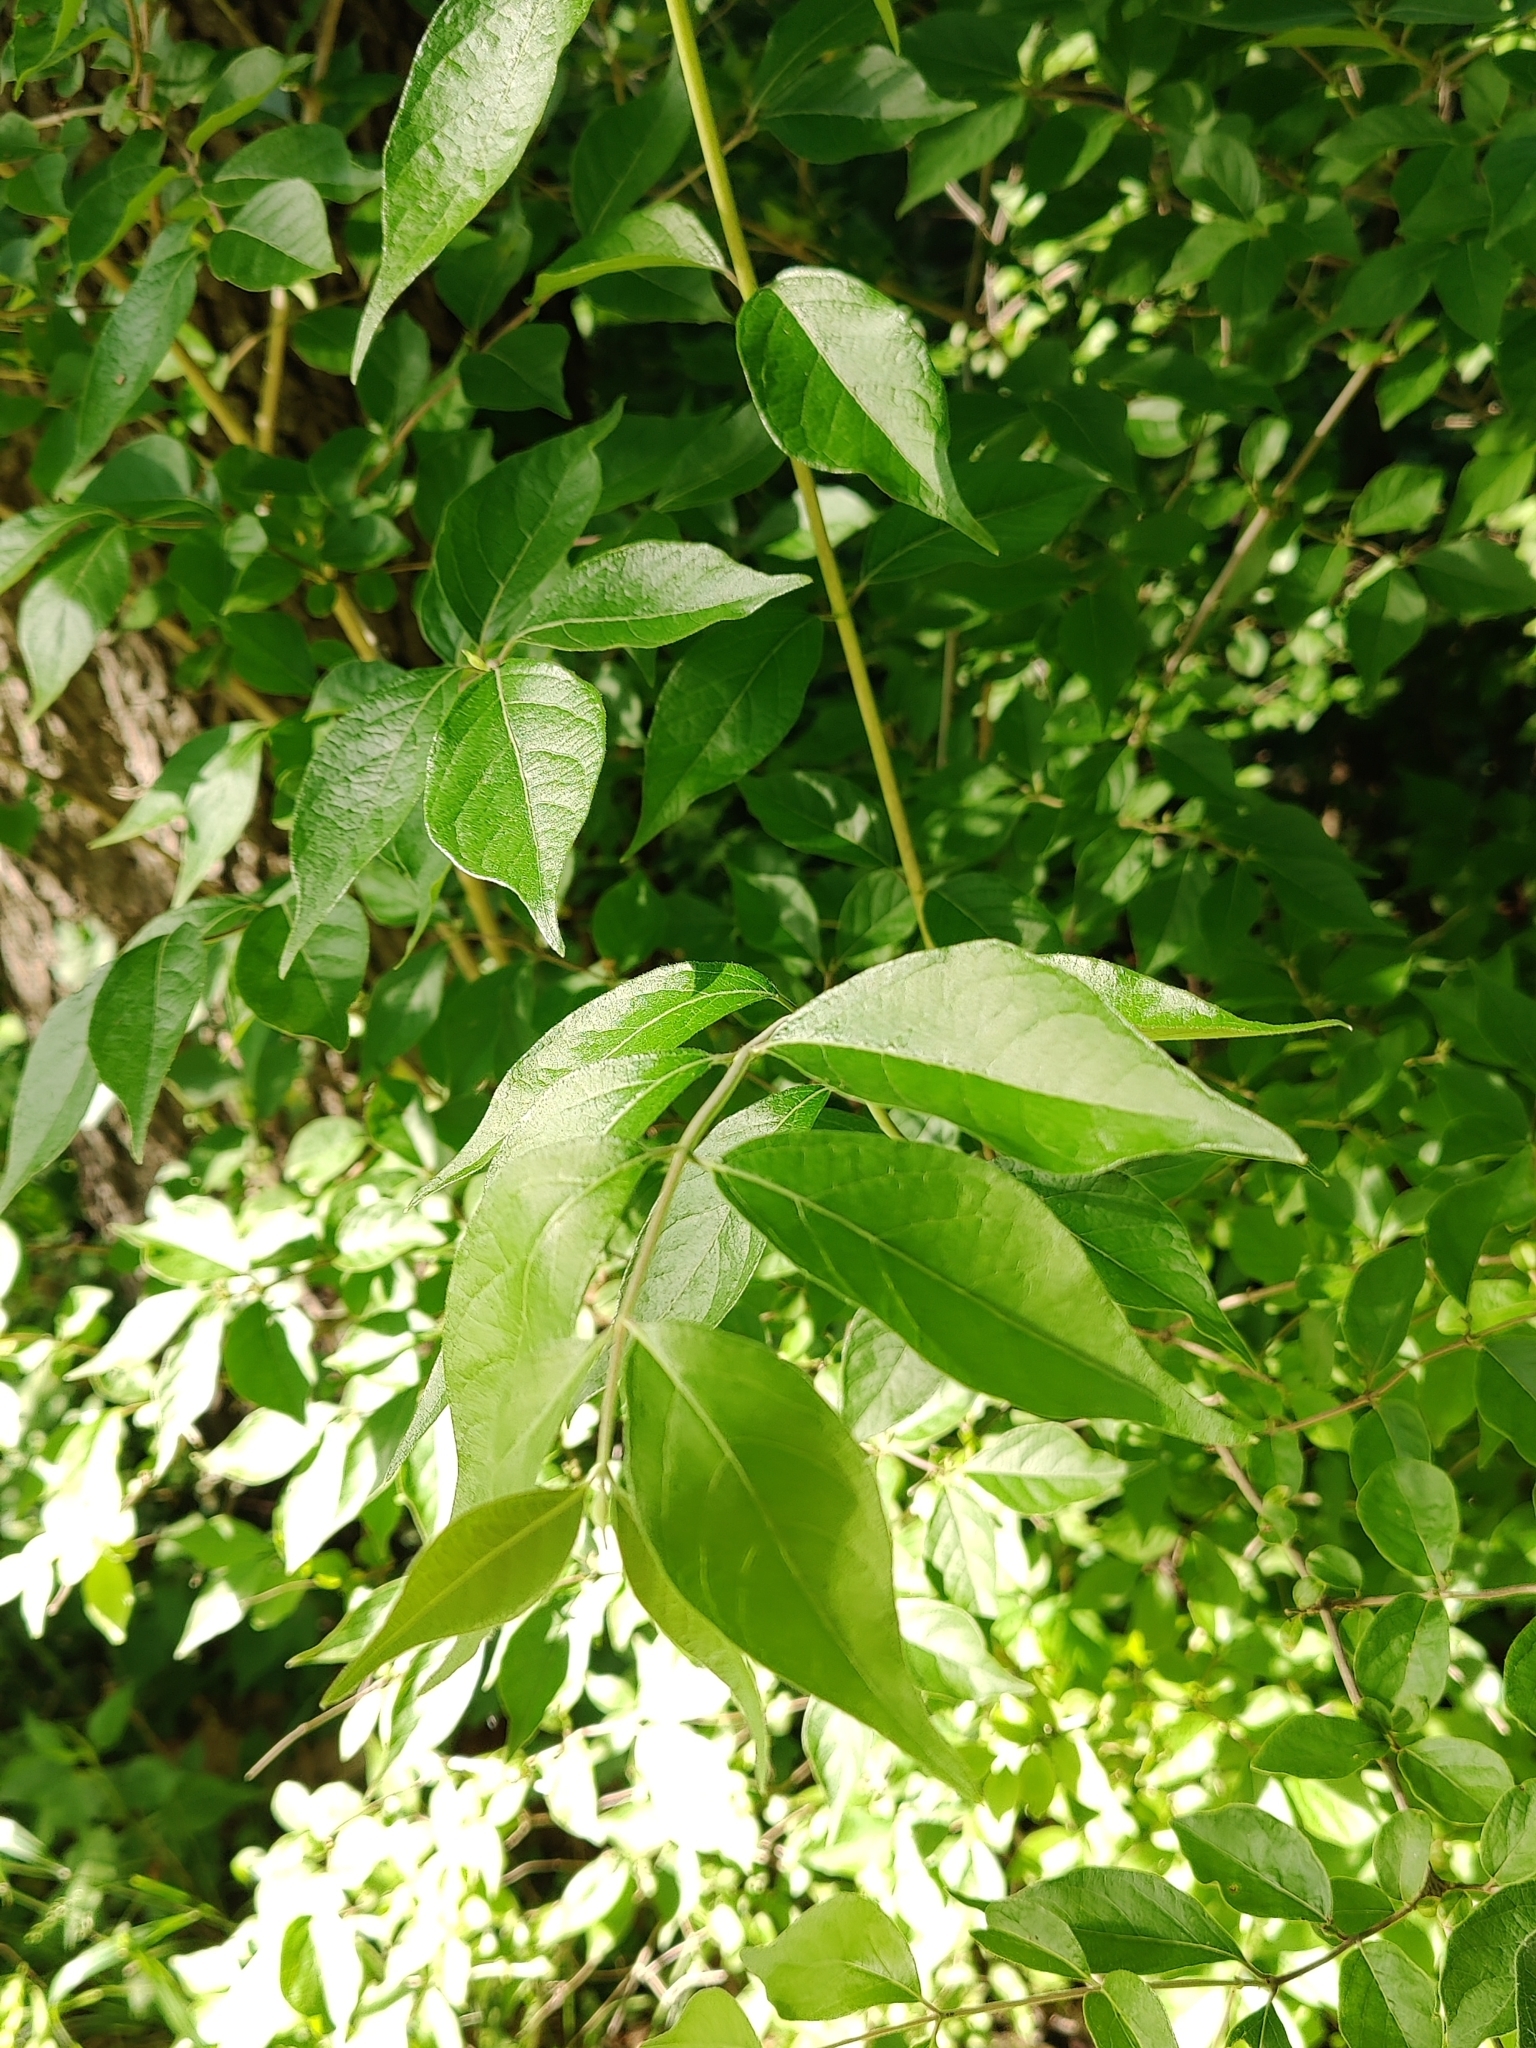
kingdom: Plantae
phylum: Tracheophyta
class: Magnoliopsida
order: Dipsacales
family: Caprifoliaceae
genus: Lonicera
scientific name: Lonicera maackii
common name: Amur honeysuckle
